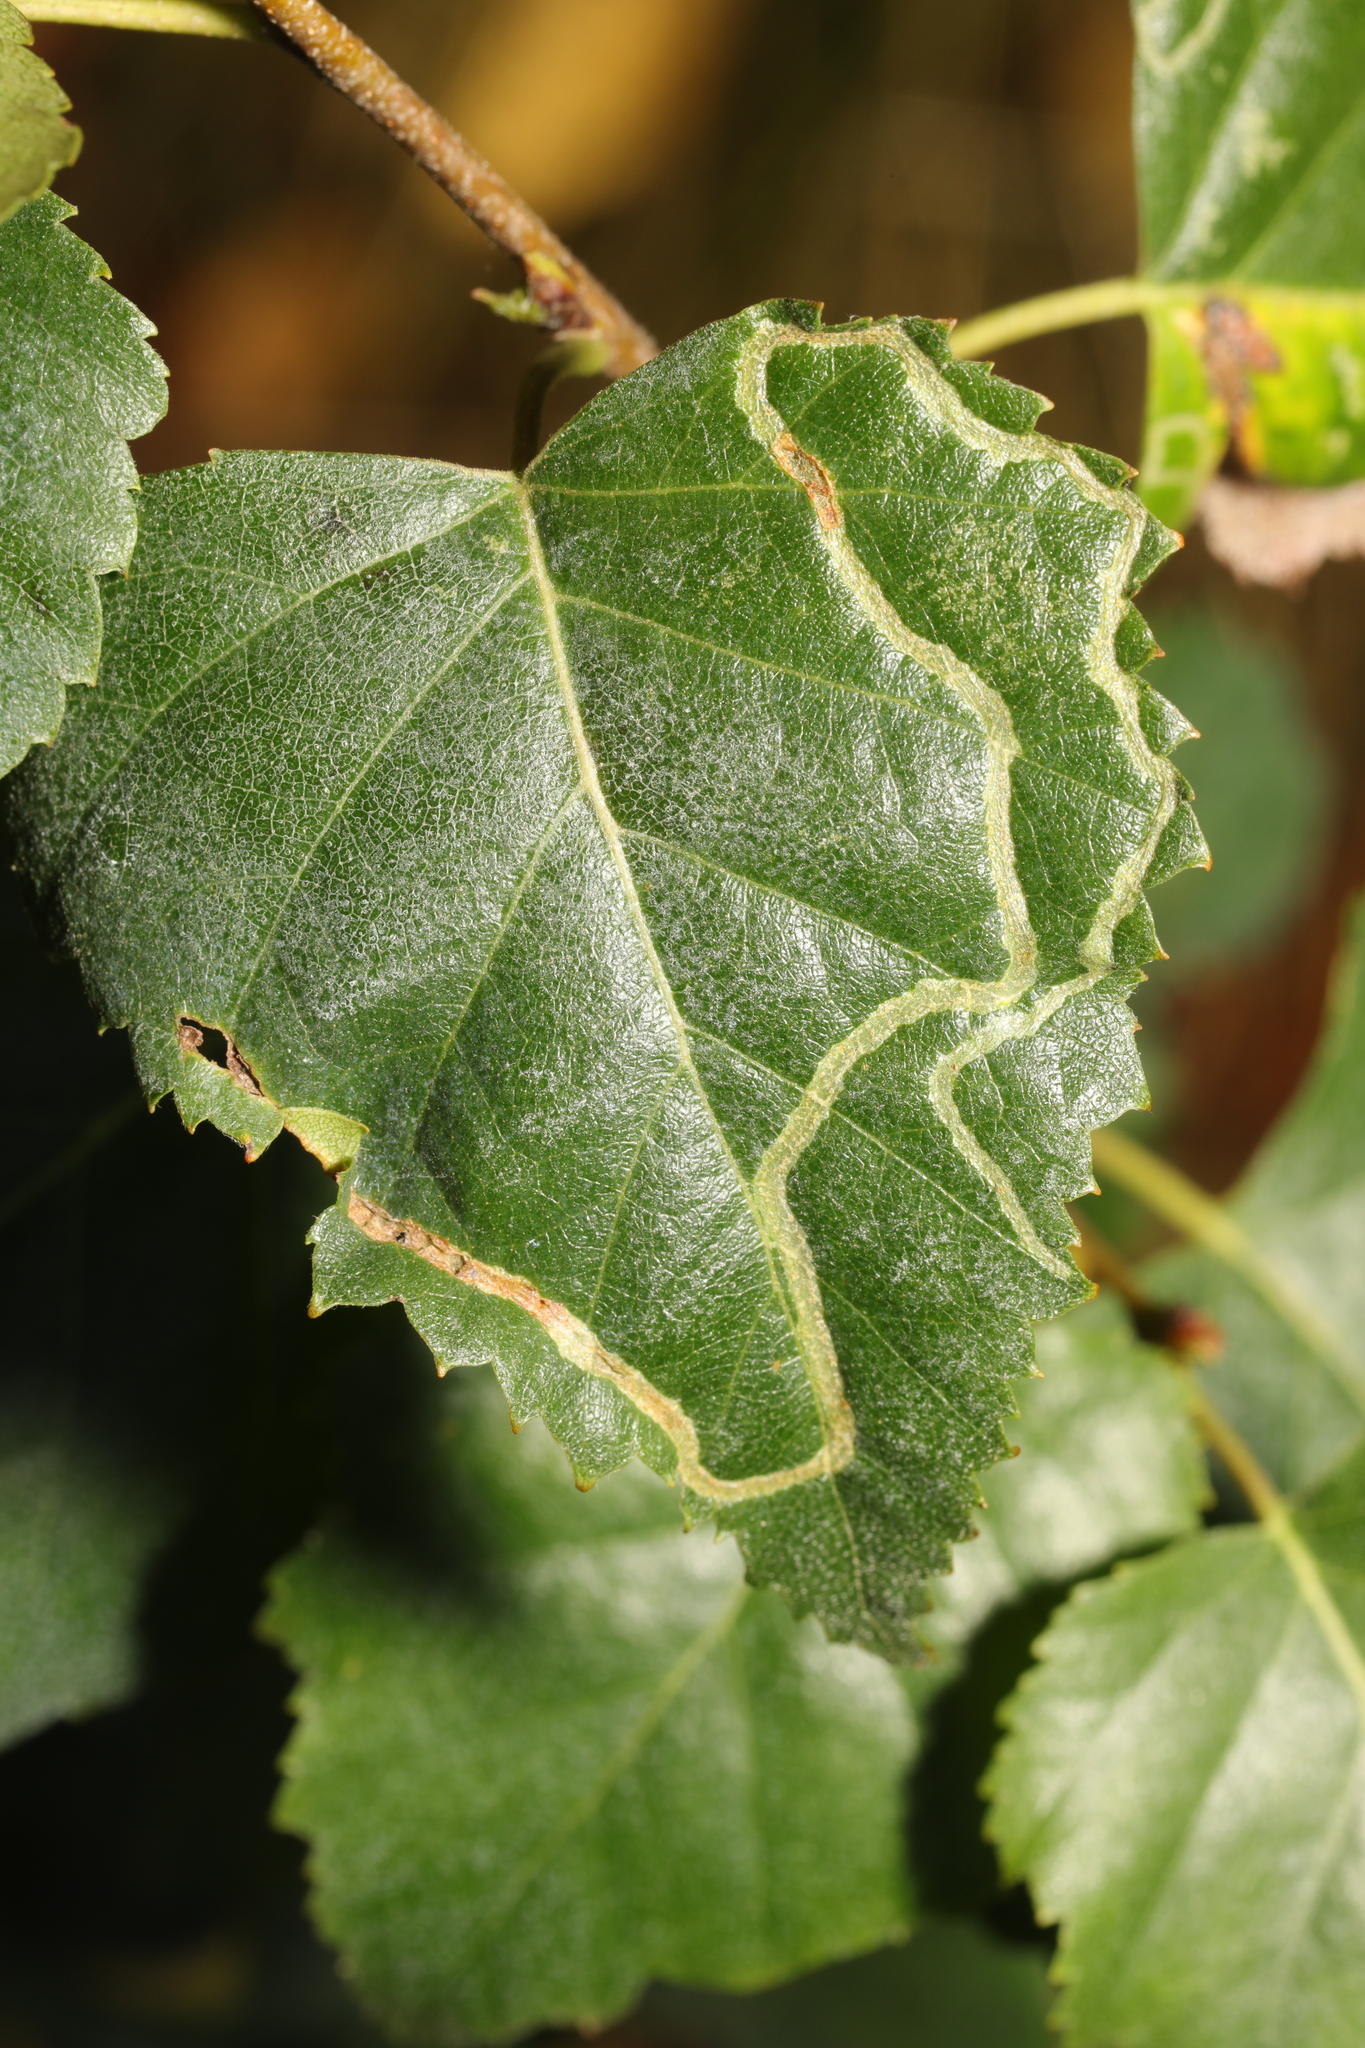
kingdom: Animalia
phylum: Arthropoda
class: Insecta
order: Diptera
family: Agromyzidae
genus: Agromyza
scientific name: Agromyza alnibetulae
